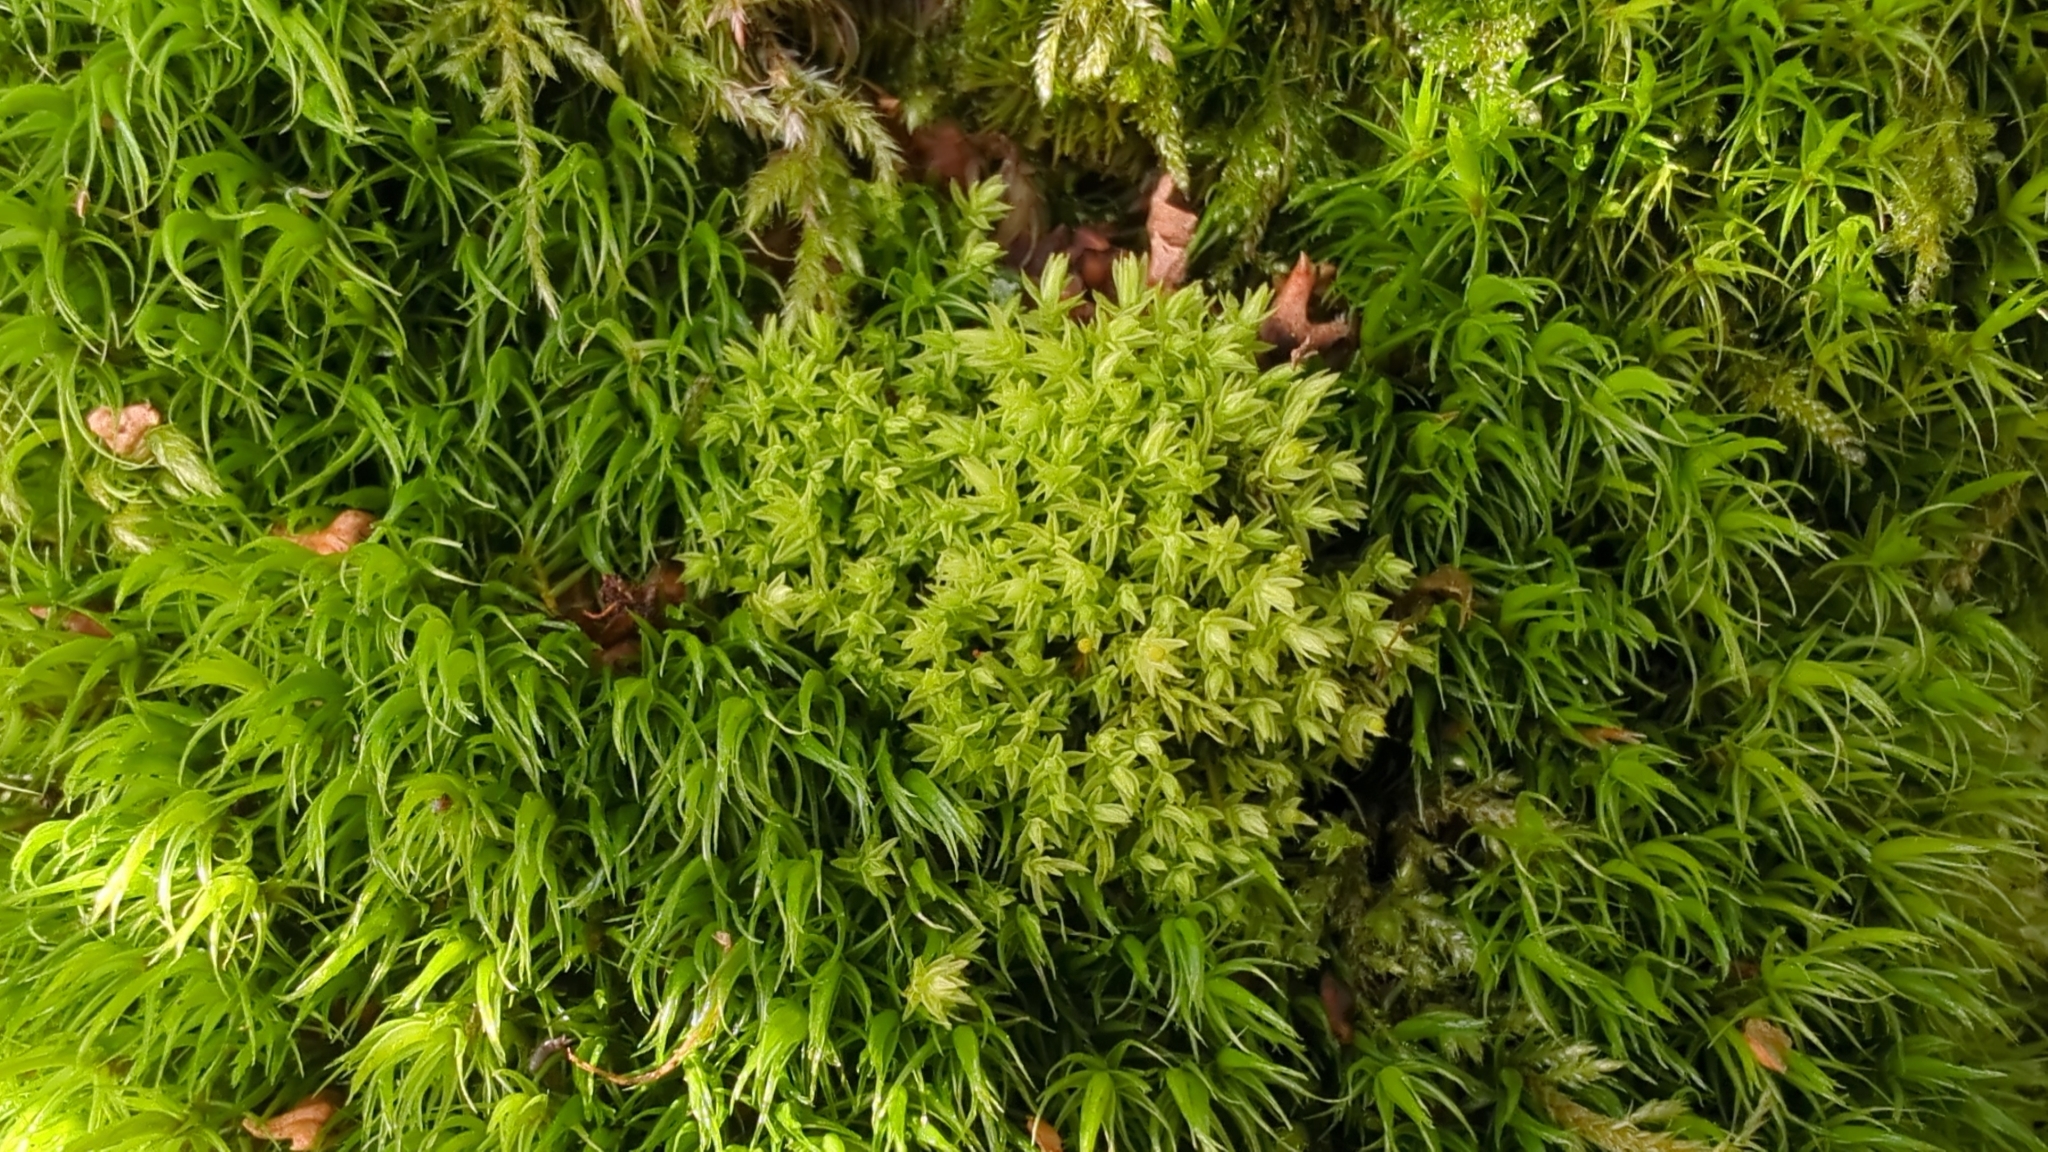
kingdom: Plantae
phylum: Bryophyta
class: Bryopsida
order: Aulacomniales
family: Aulacomniaceae
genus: Aulacomnium
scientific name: Aulacomnium androgynum
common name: Little groove moss
